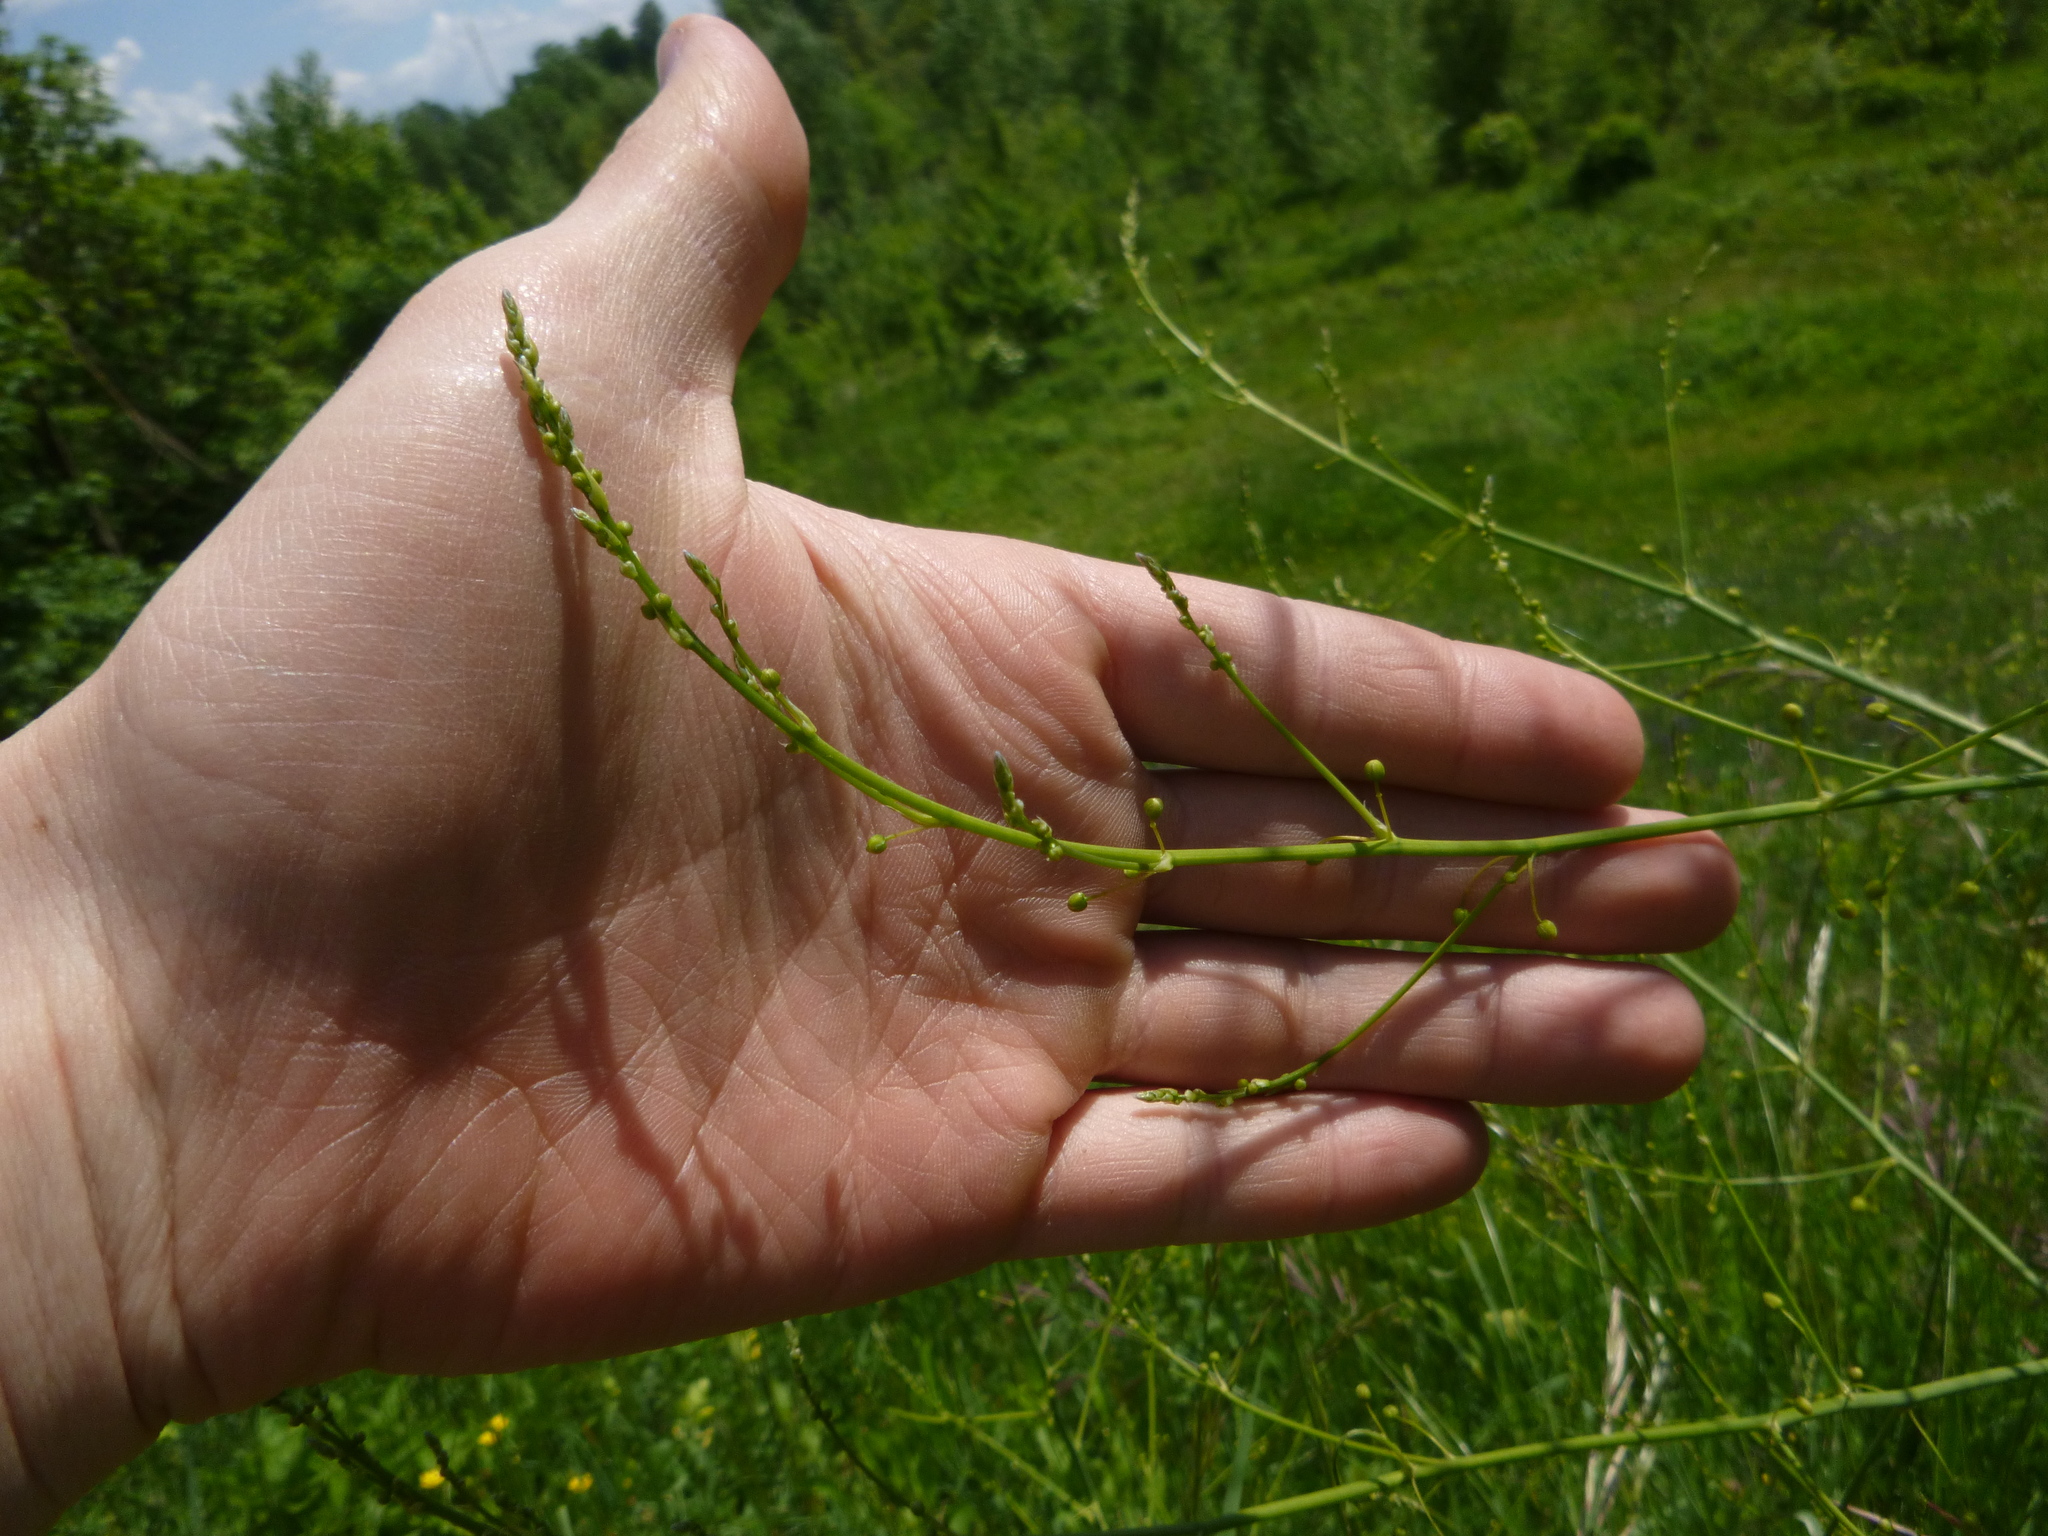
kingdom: Plantae
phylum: Tracheophyta
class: Liliopsida
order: Asparagales
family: Asparagaceae
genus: Asparagus
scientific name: Asparagus officinalis
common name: Garden asparagus
